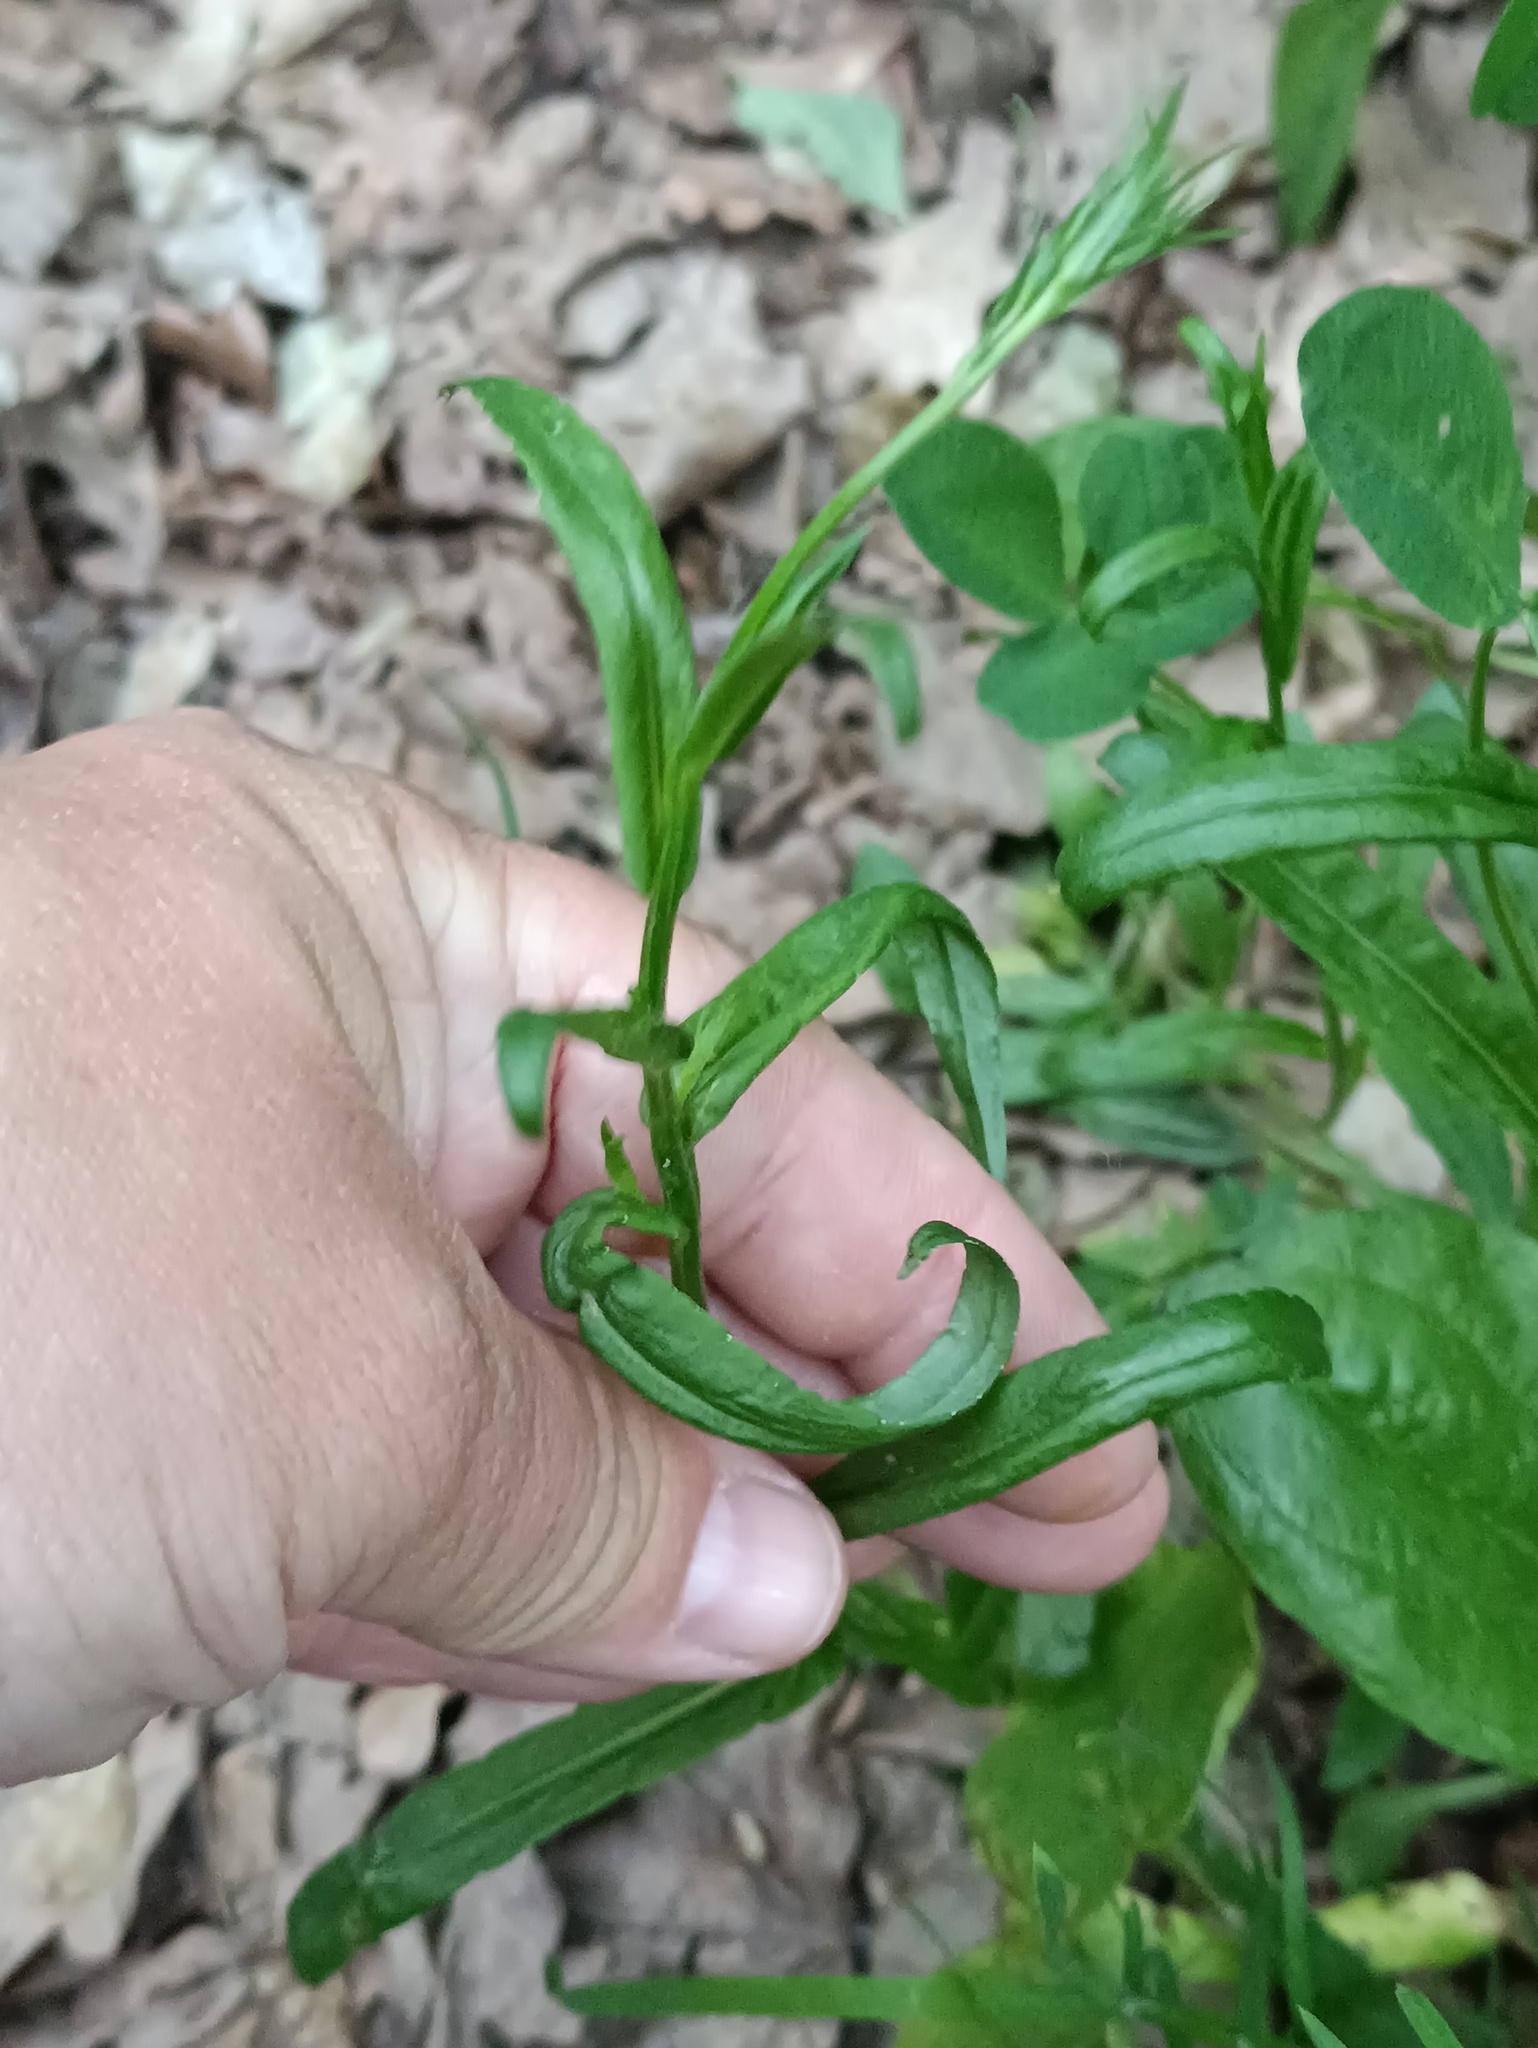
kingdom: Plantae
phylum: Tracheophyta
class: Magnoliopsida
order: Asterales
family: Campanulaceae
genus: Campanula
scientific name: Campanula patula
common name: Spreading bellflower
